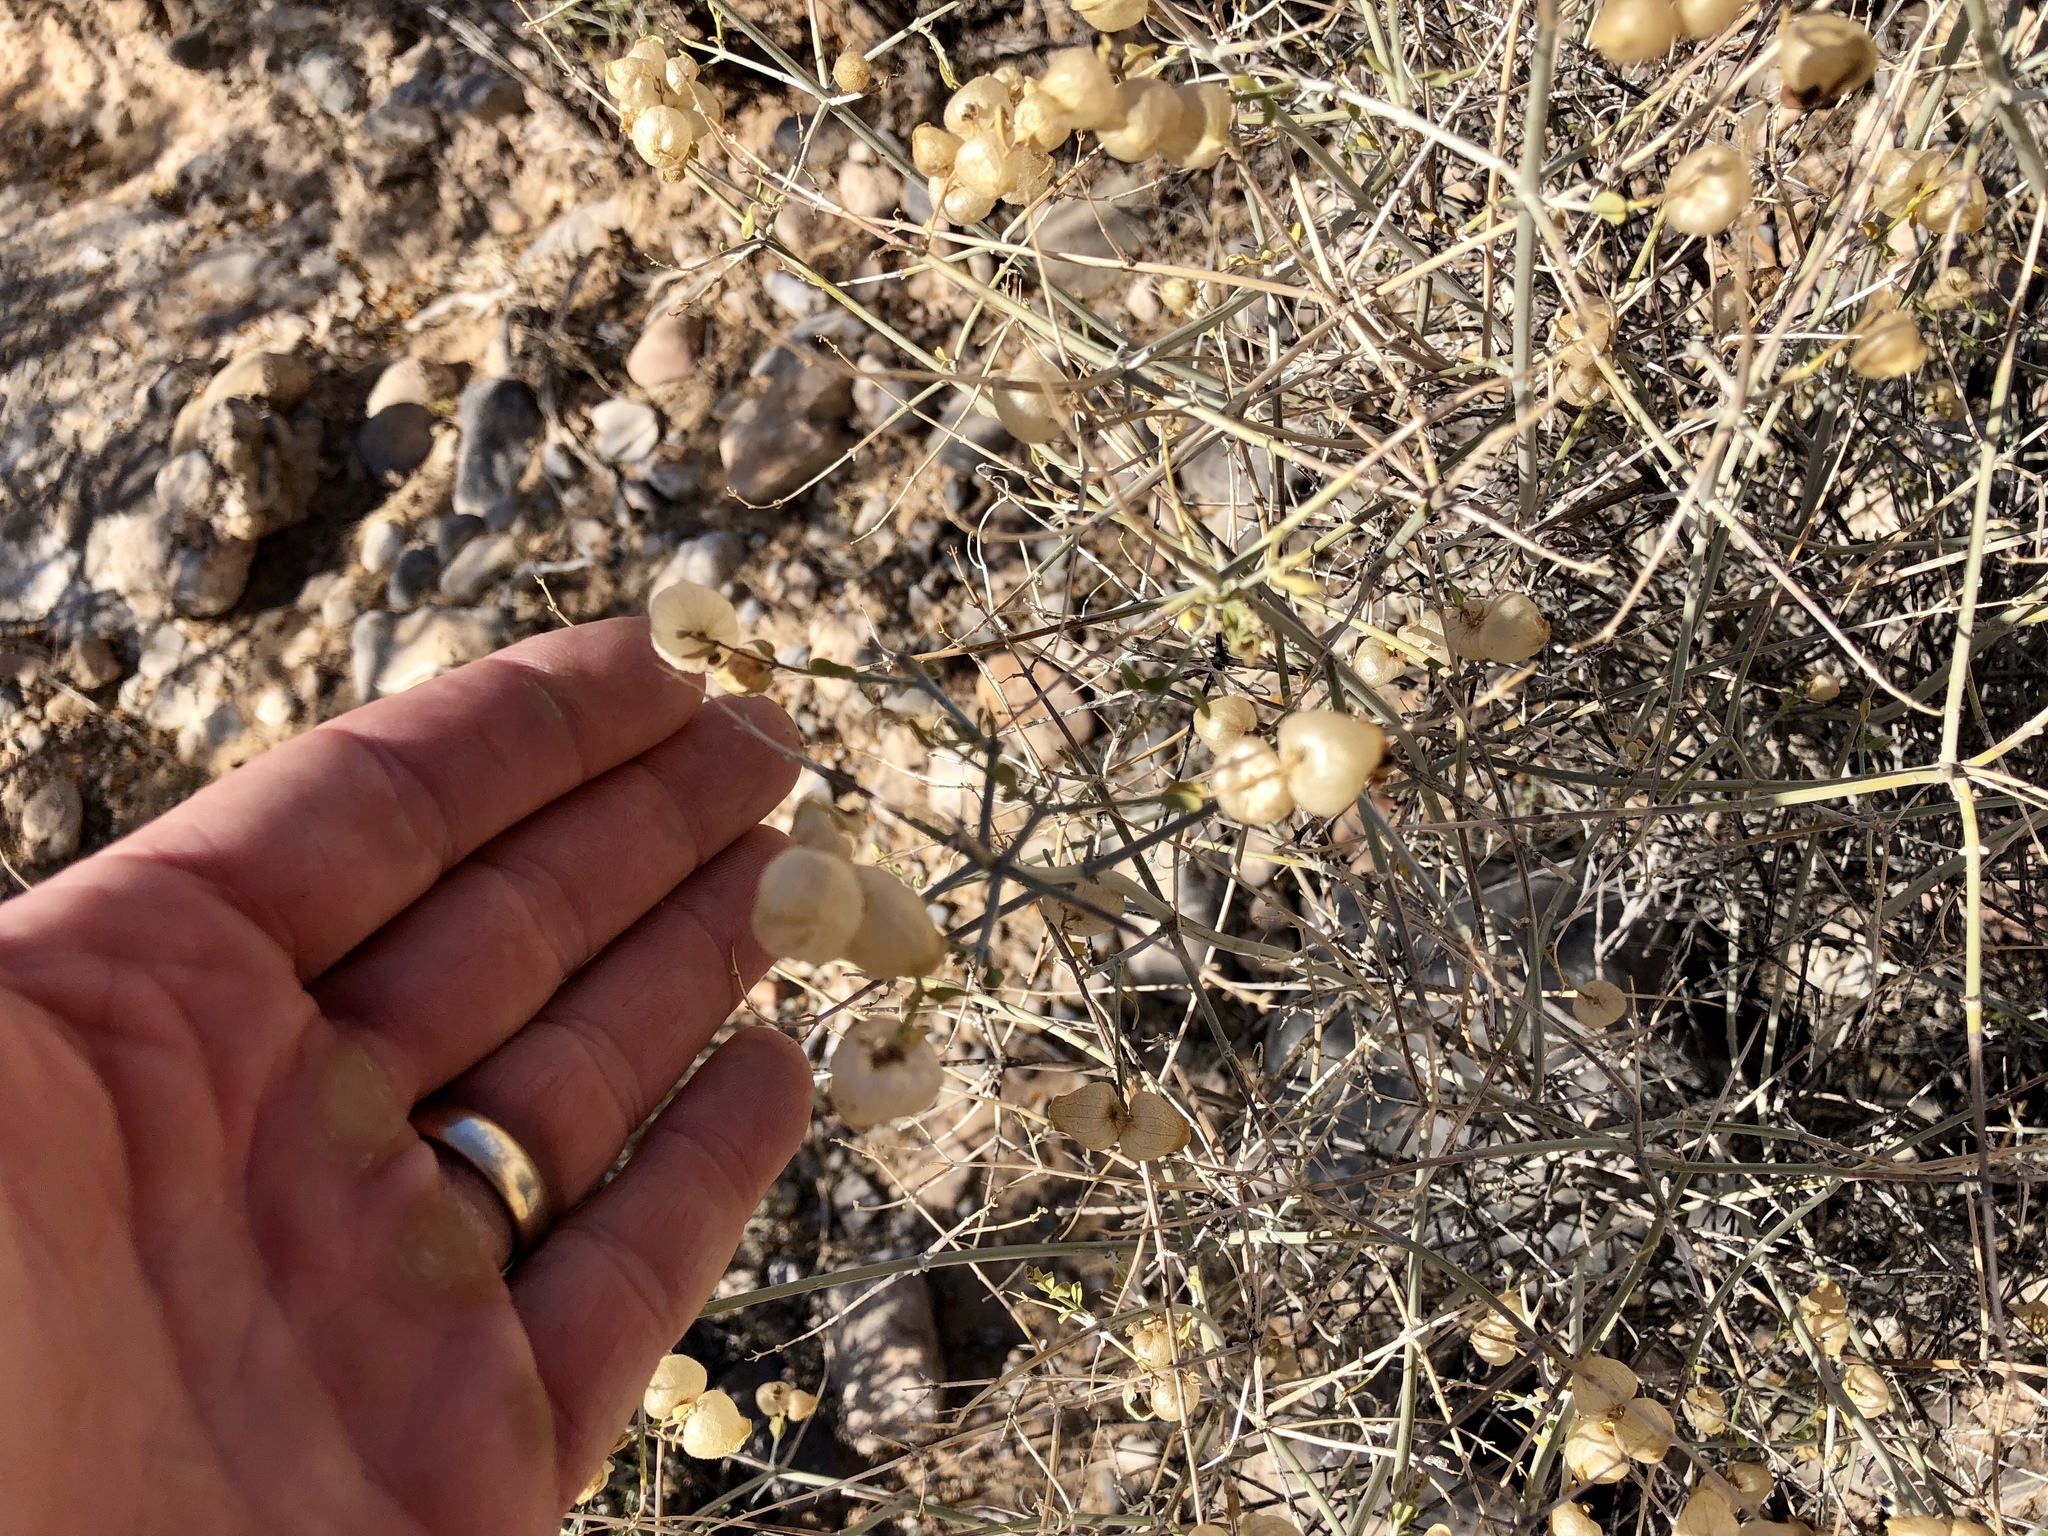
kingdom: Plantae
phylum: Tracheophyta
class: Magnoliopsida
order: Lamiales
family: Lamiaceae
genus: Scutellaria
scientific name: Scutellaria mexicana
